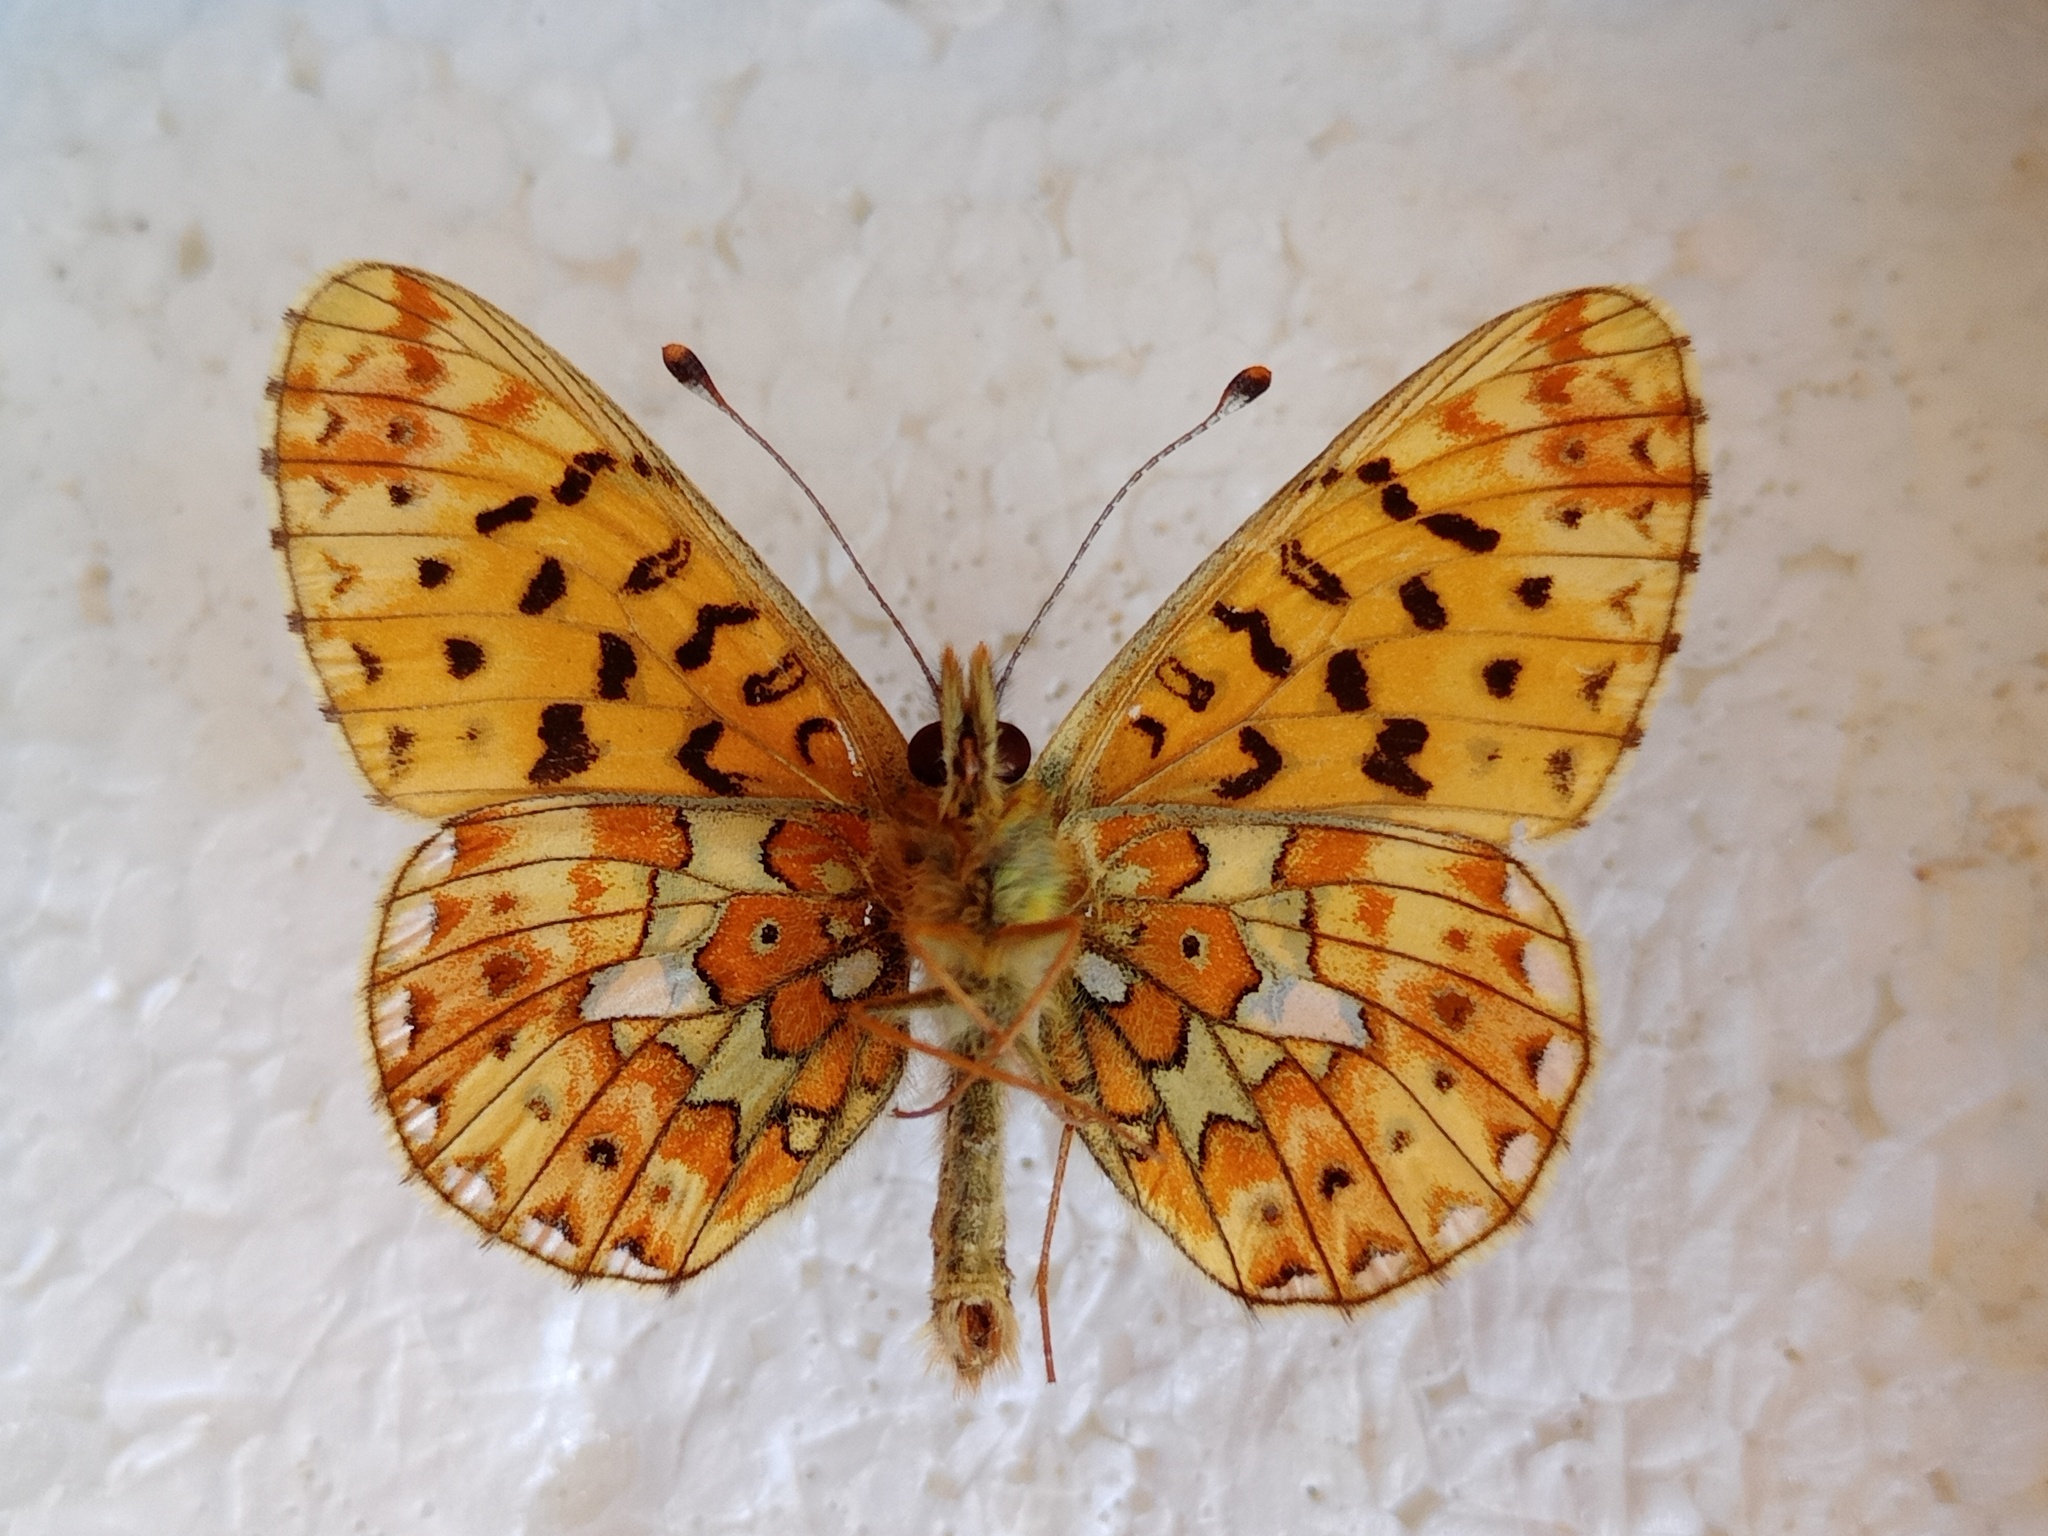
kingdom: Animalia
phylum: Arthropoda
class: Insecta
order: Lepidoptera
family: Nymphalidae
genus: Clossiana
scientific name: Clossiana euphrosyne
